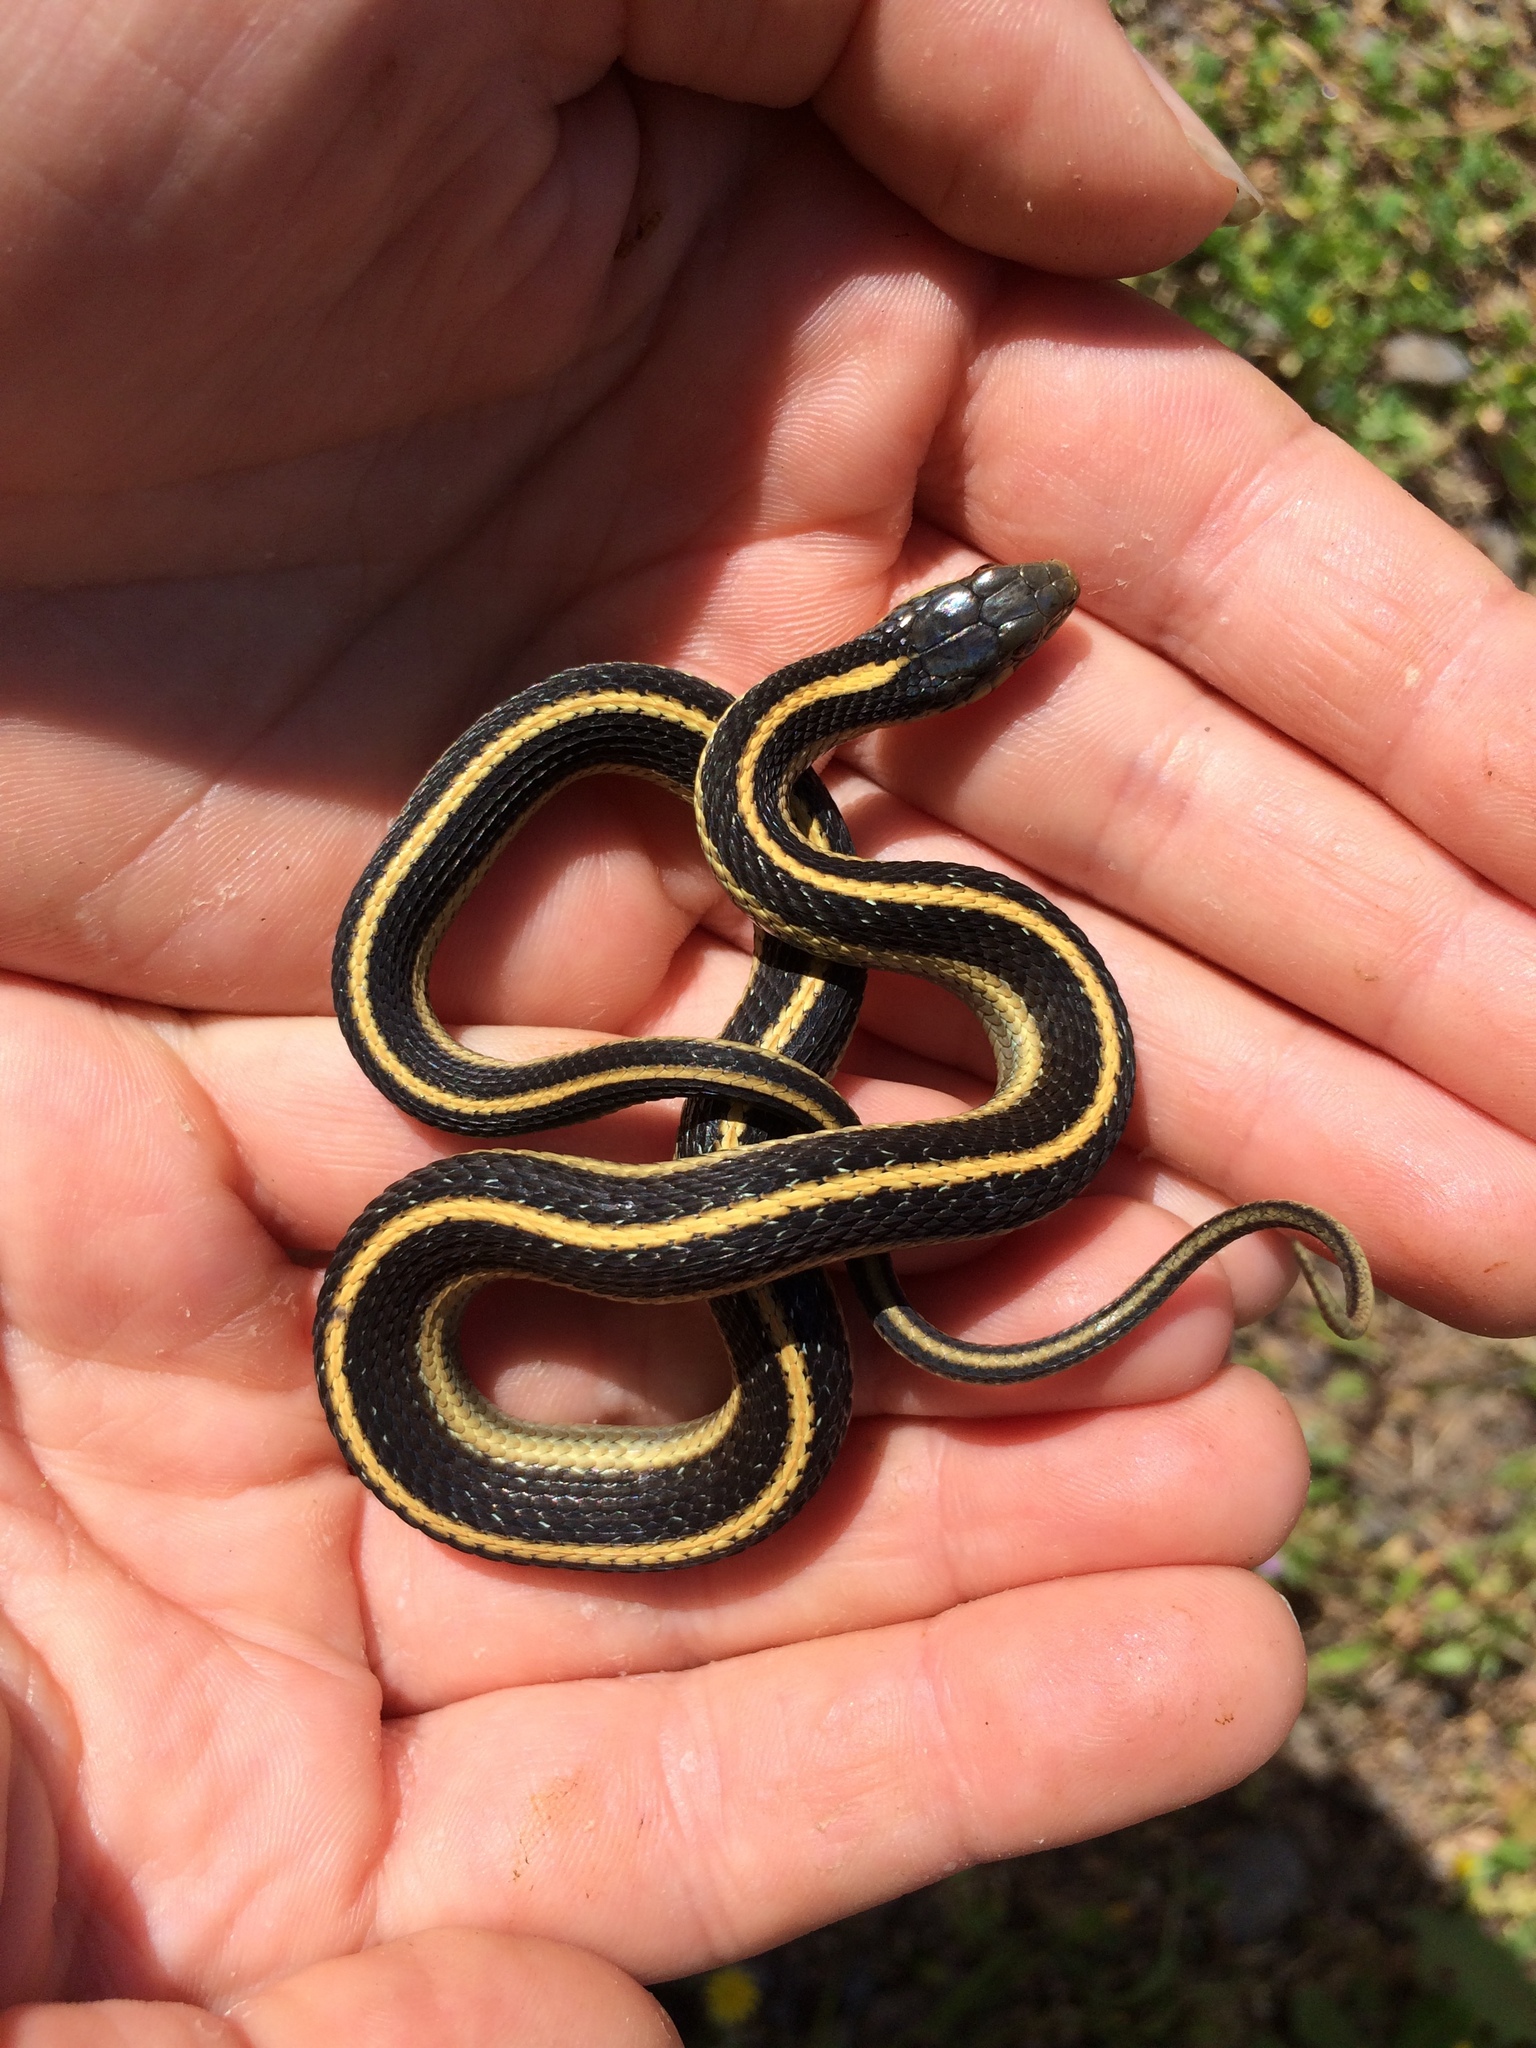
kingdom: Animalia
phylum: Chordata
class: Squamata
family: Colubridae
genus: Thamnophis
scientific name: Thamnophis atratus
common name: Pacific coast aquatic garter snake
